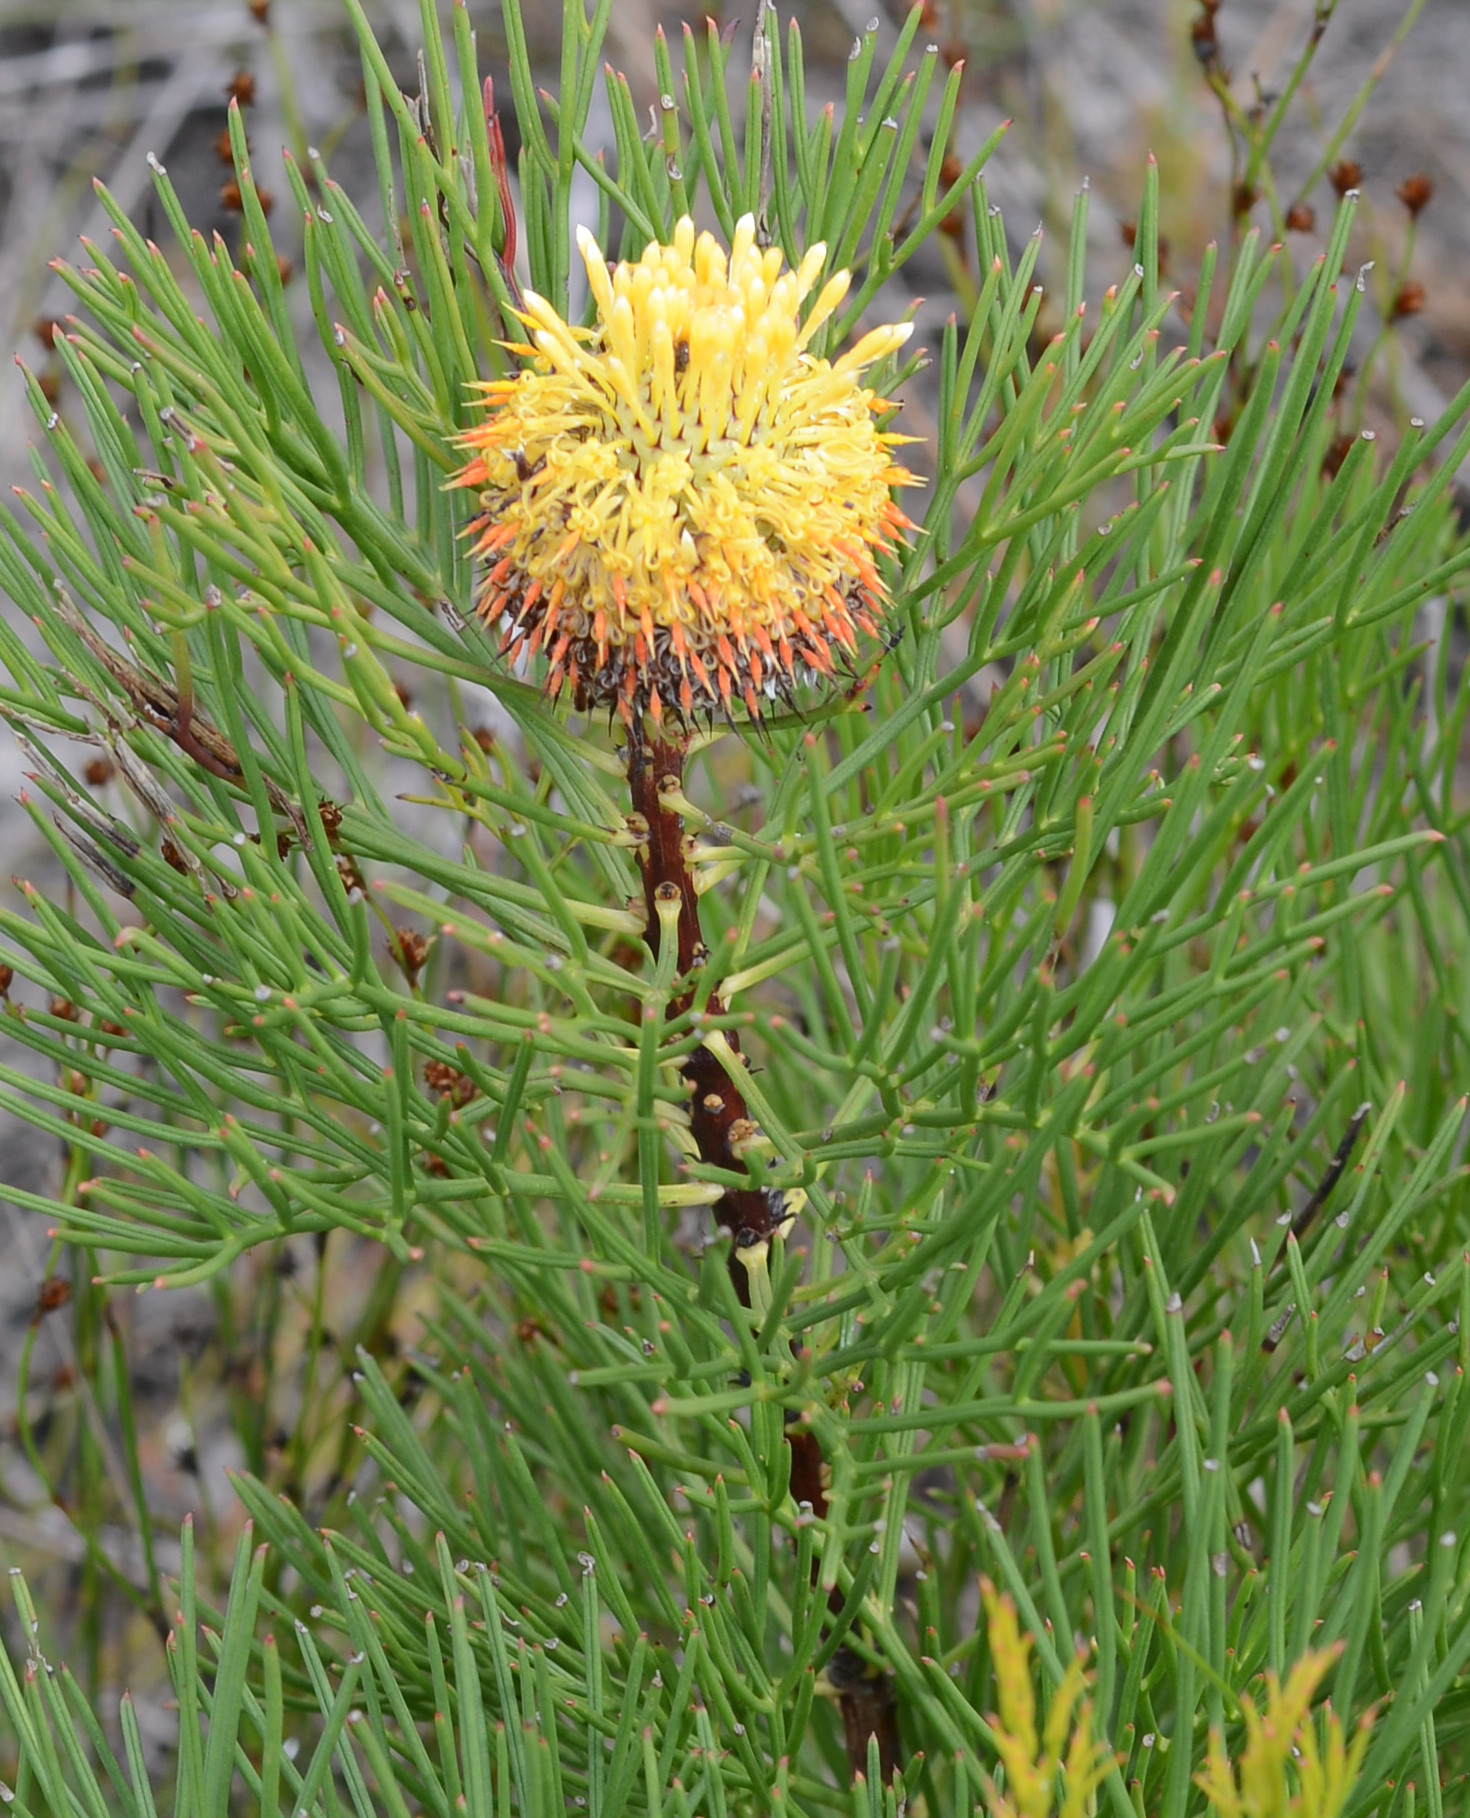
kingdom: Plantae
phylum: Tracheophyta
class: Magnoliopsida
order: Proteales
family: Proteaceae
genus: Isopogon
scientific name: Isopogon anethifolius
